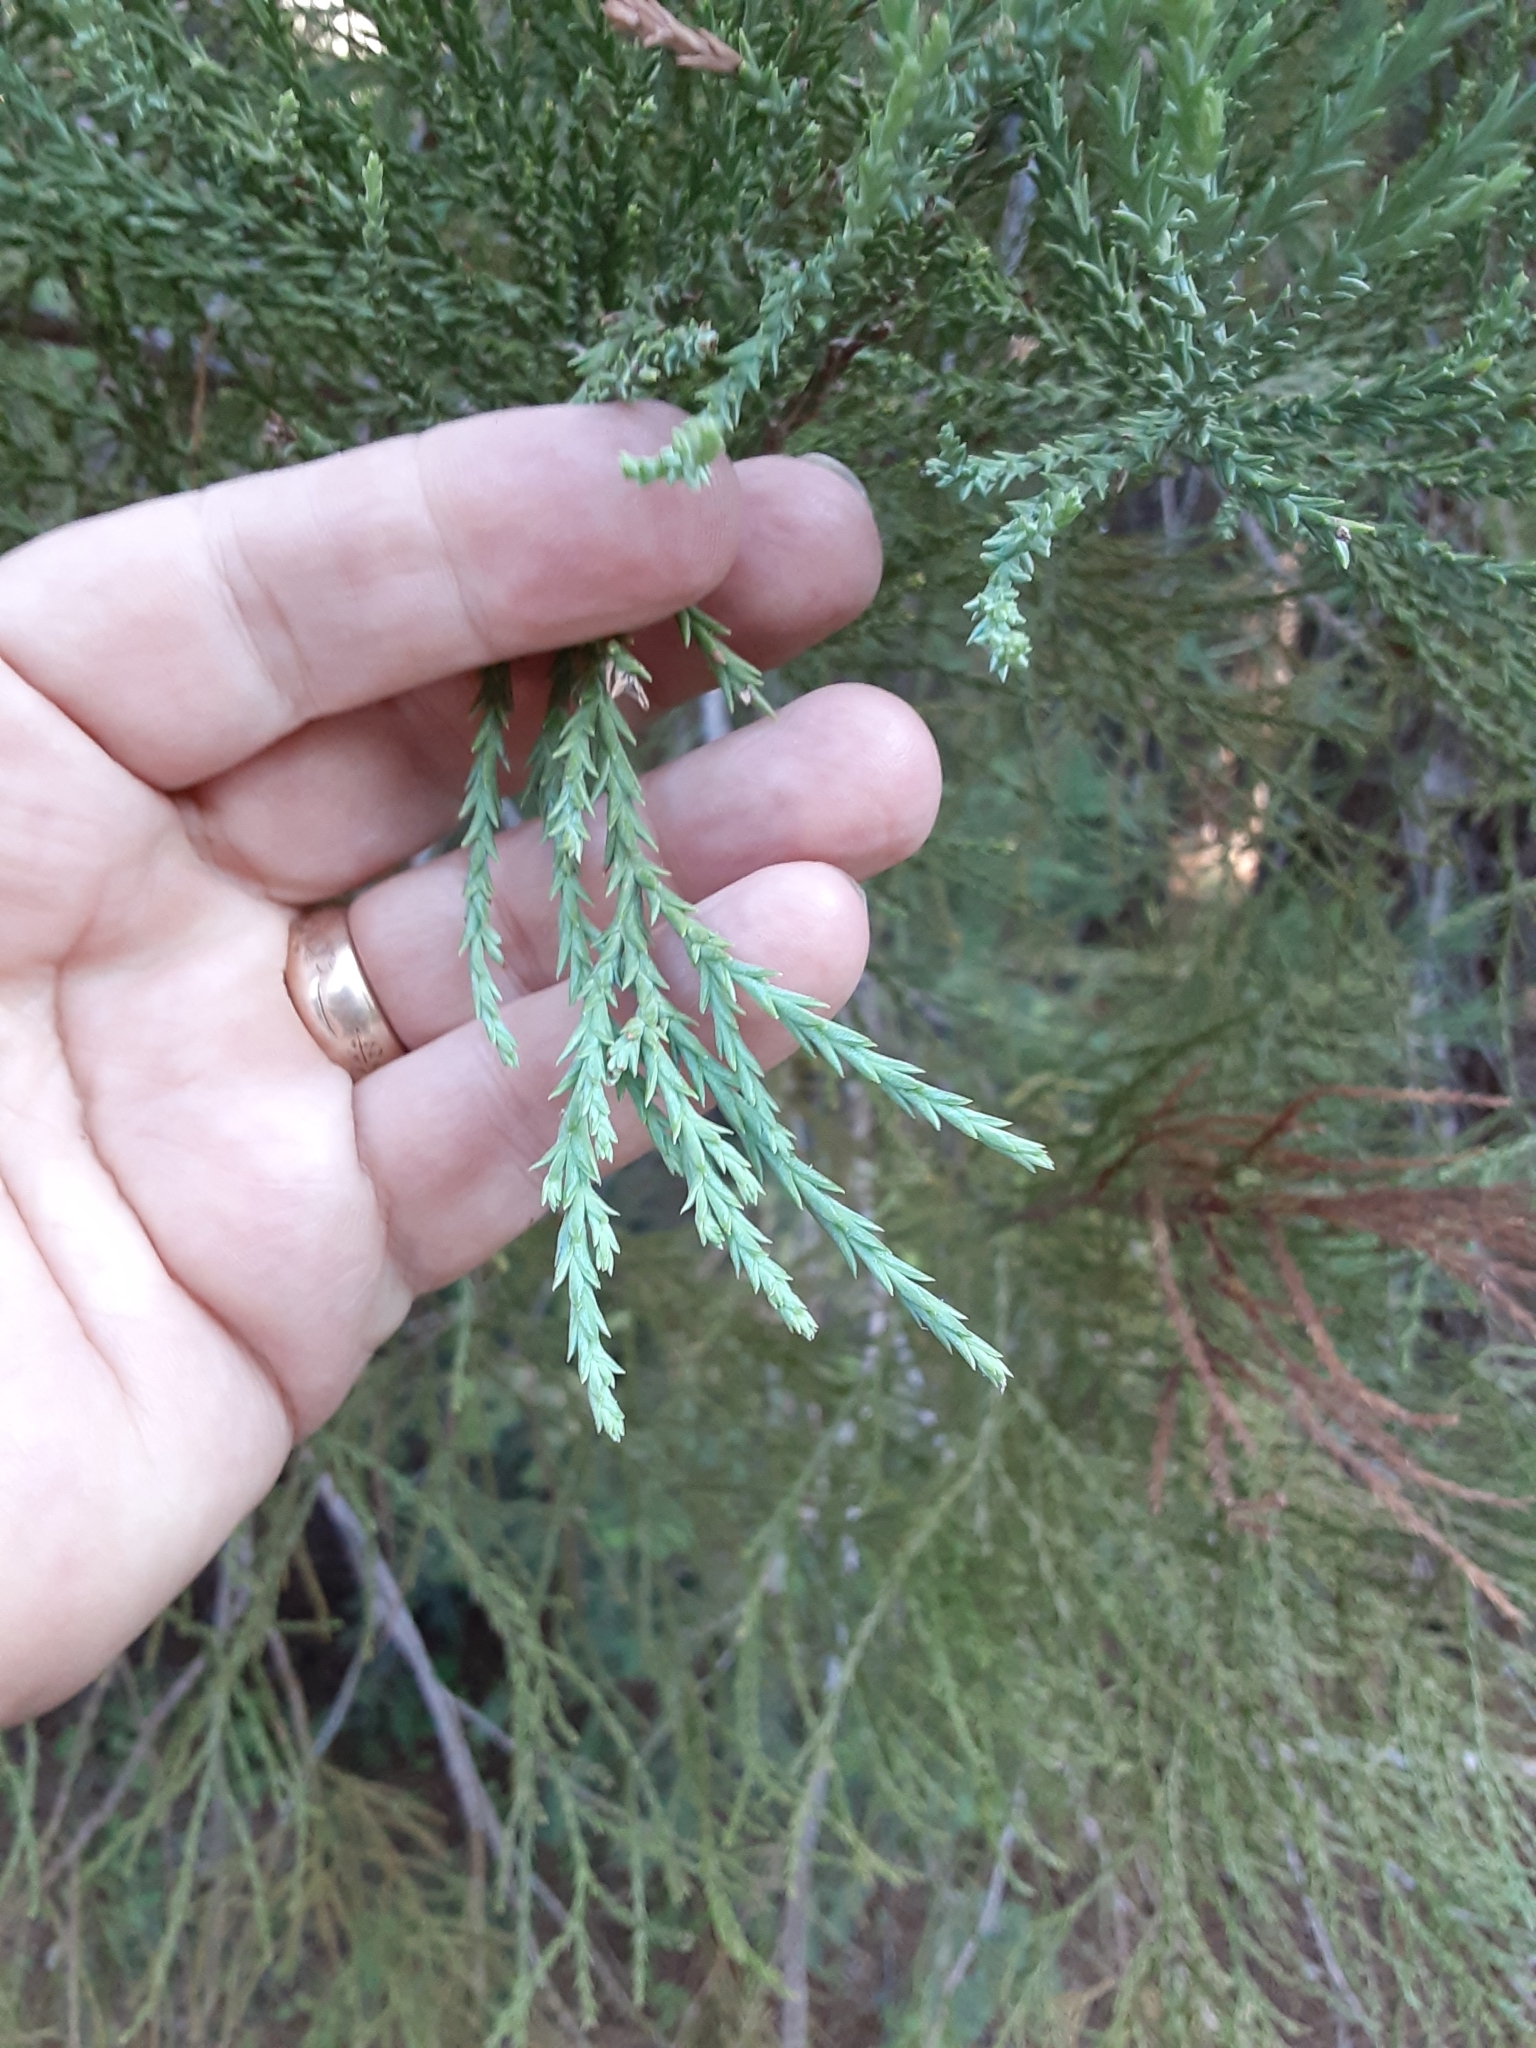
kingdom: Plantae
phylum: Tracheophyta
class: Pinopsida
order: Pinales
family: Cupressaceae
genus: Sequoiadendron
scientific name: Sequoiadendron giganteum
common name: Wellingtonia
